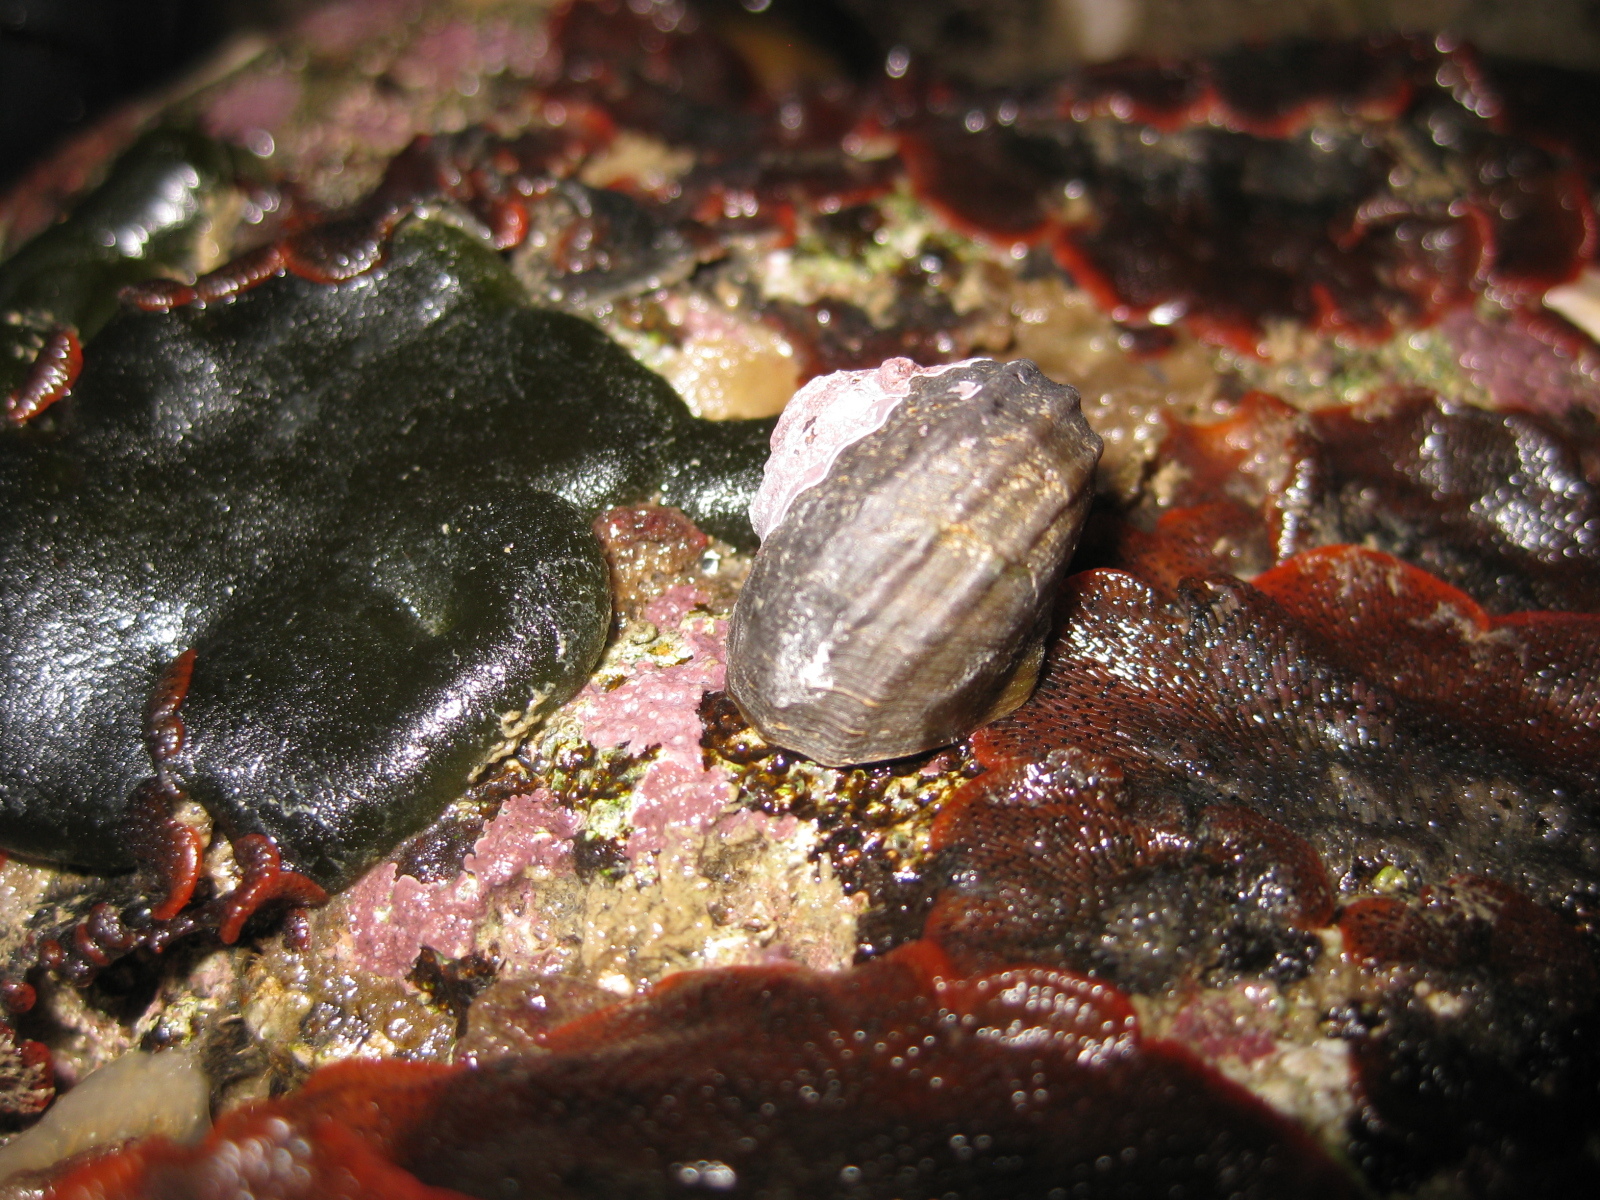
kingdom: Animalia
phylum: Mollusca
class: Gastropoda
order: Trochida
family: Turbinidae
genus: Lunella
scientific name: Lunella smaragda
